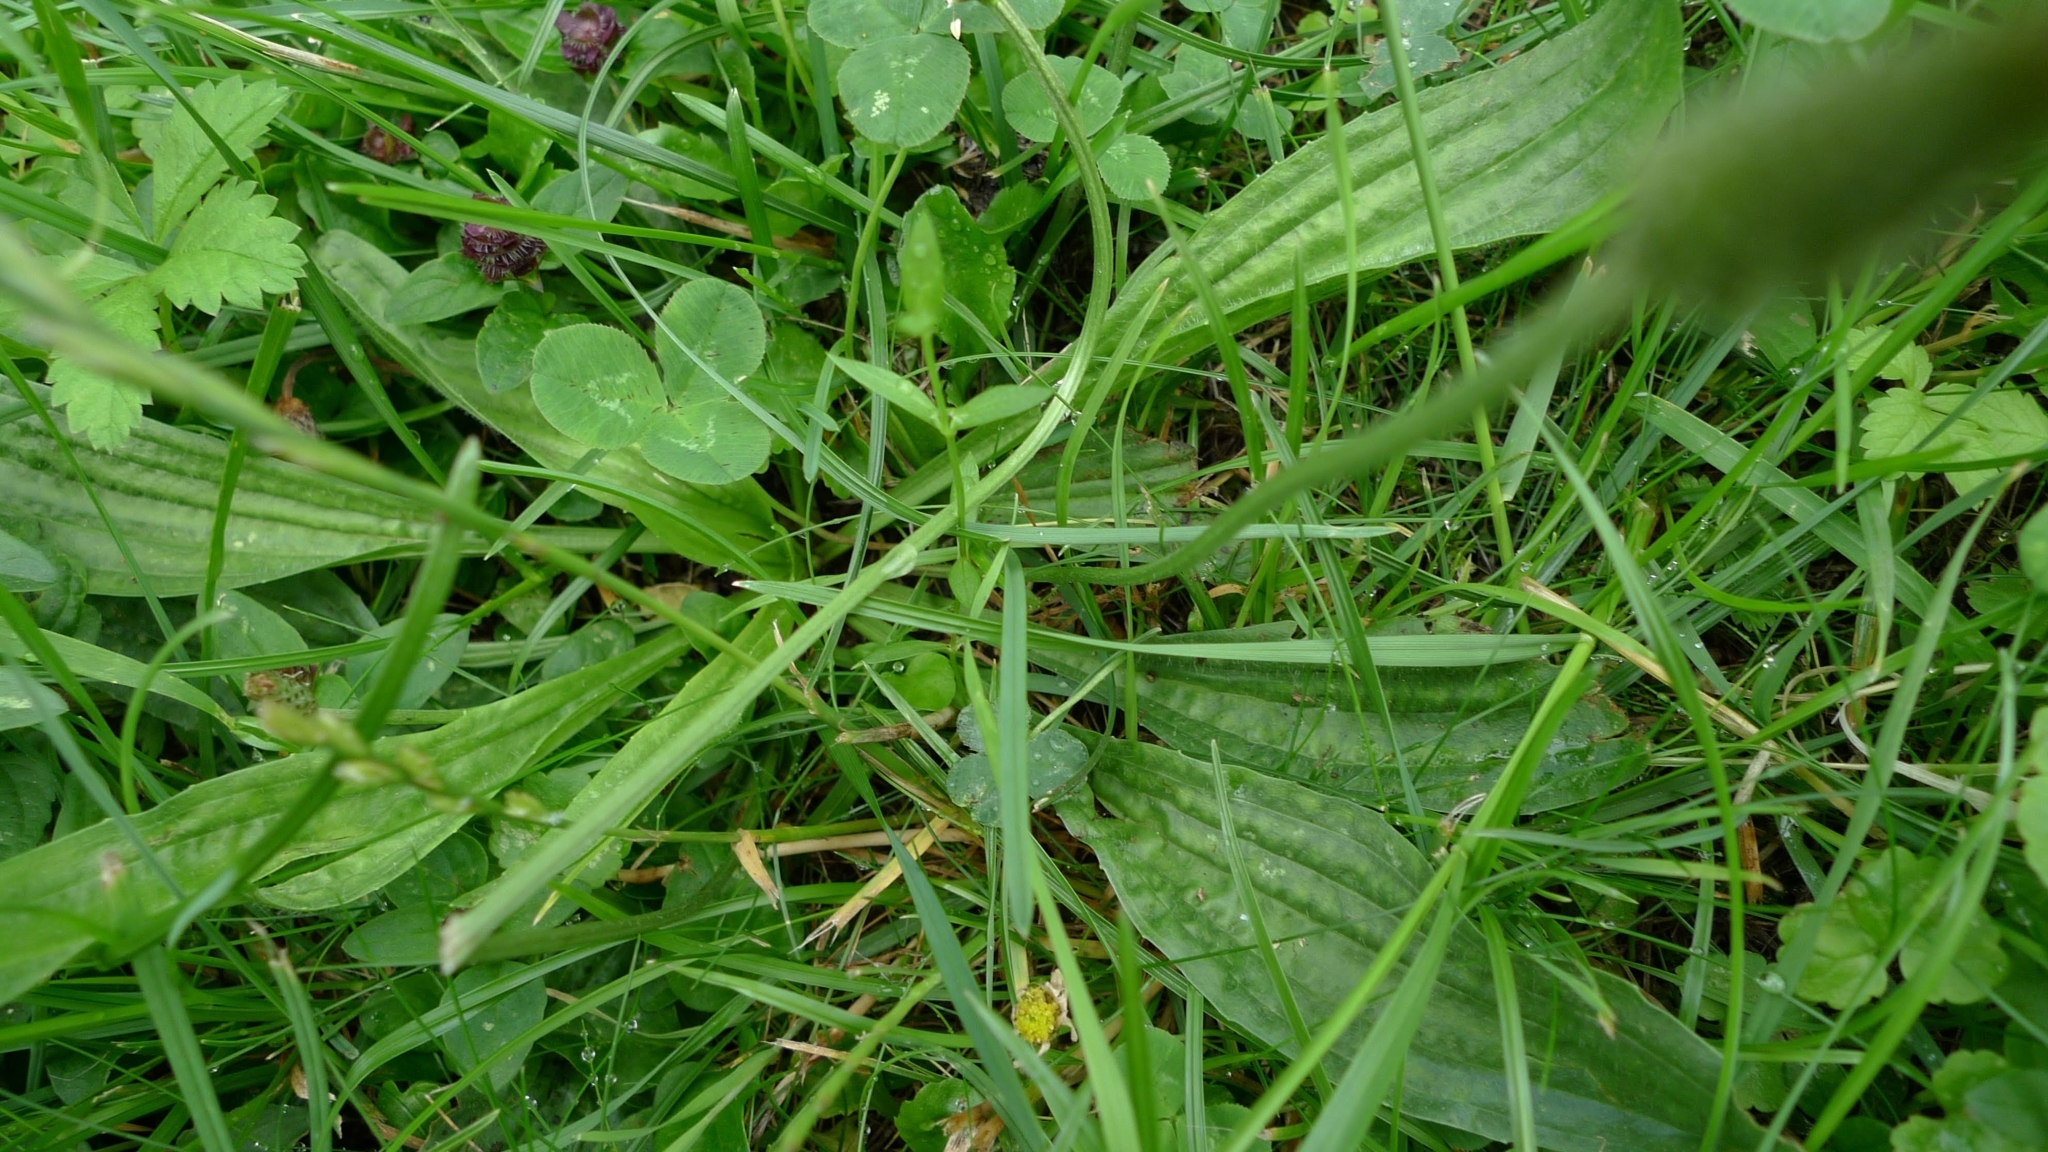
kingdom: Plantae
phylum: Tracheophyta
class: Magnoliopsida
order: Lamiales
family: Plantaginaceae
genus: Plantago
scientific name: Plantago lanceolata
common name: Ribwort plantain
